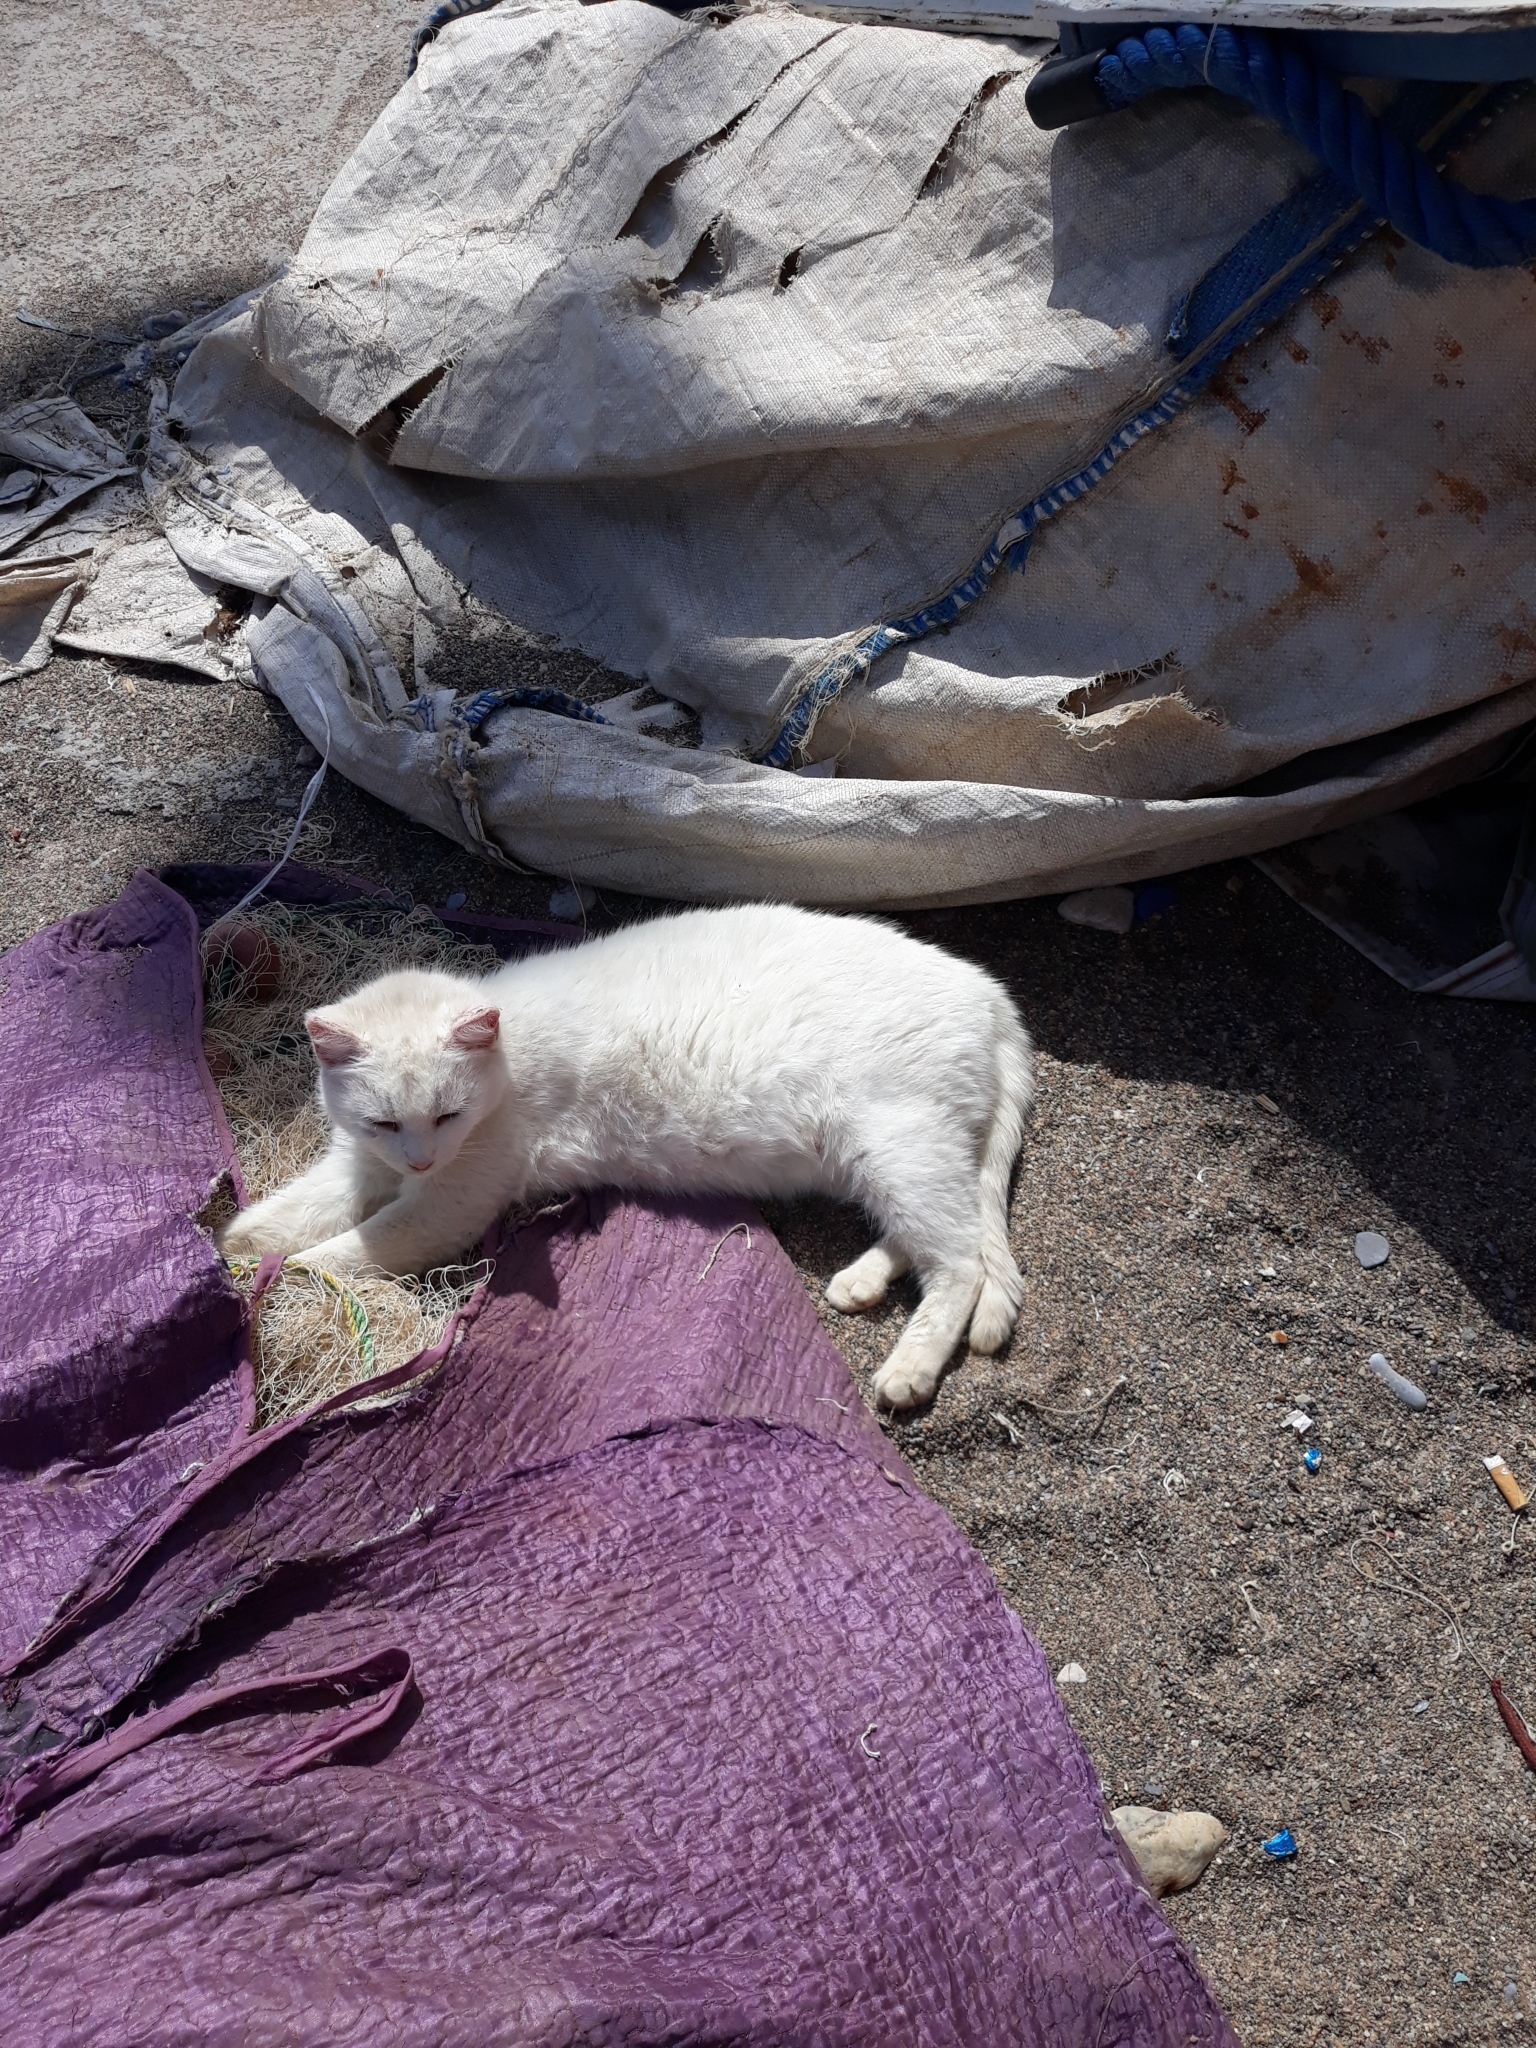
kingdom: Animalia
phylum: Chordata
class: Mammalia
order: Carnivora
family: Felidae
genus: Felis
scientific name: Felis catus
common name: Domestic cat
